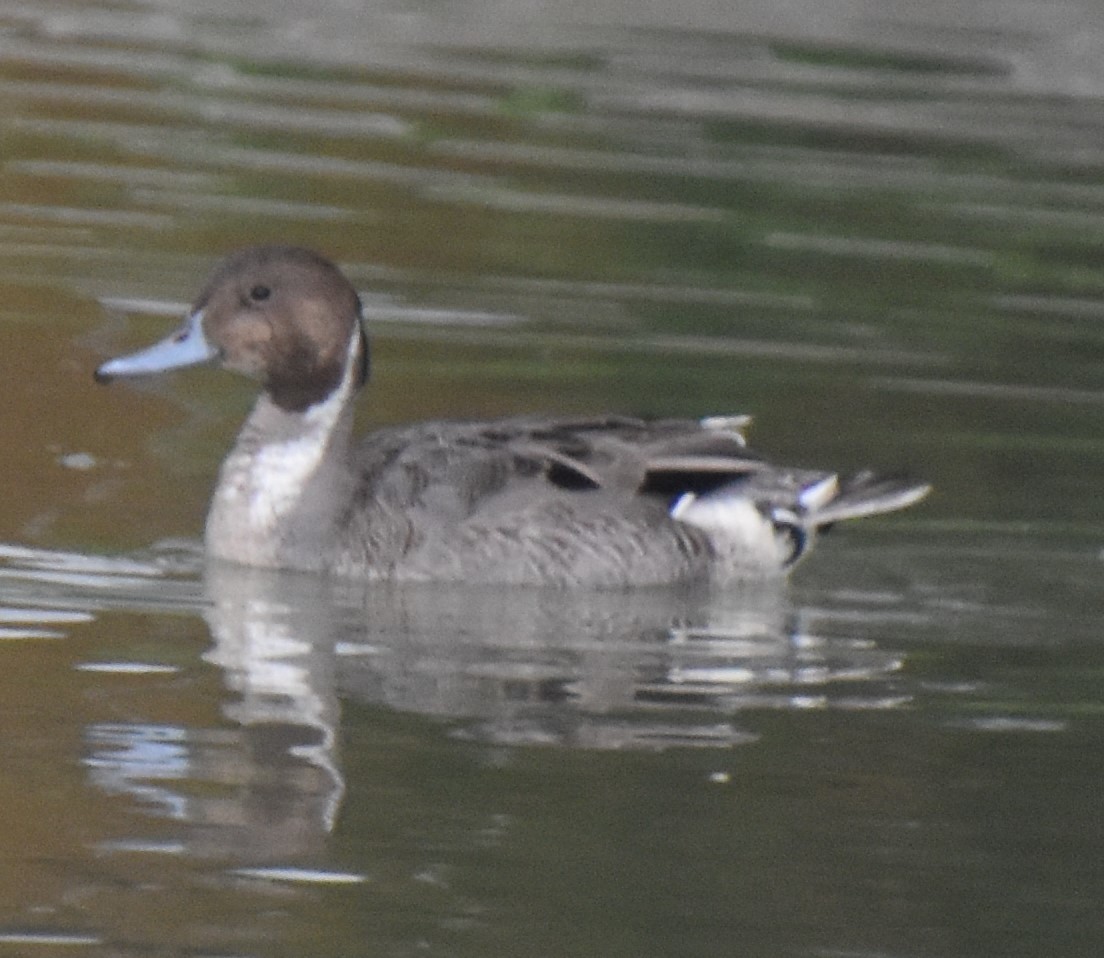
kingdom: Animalia
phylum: Chordata
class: Aves
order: Anseriformes
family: Anatidae
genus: Anas
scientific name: Anas acuta
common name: Northern pintail
